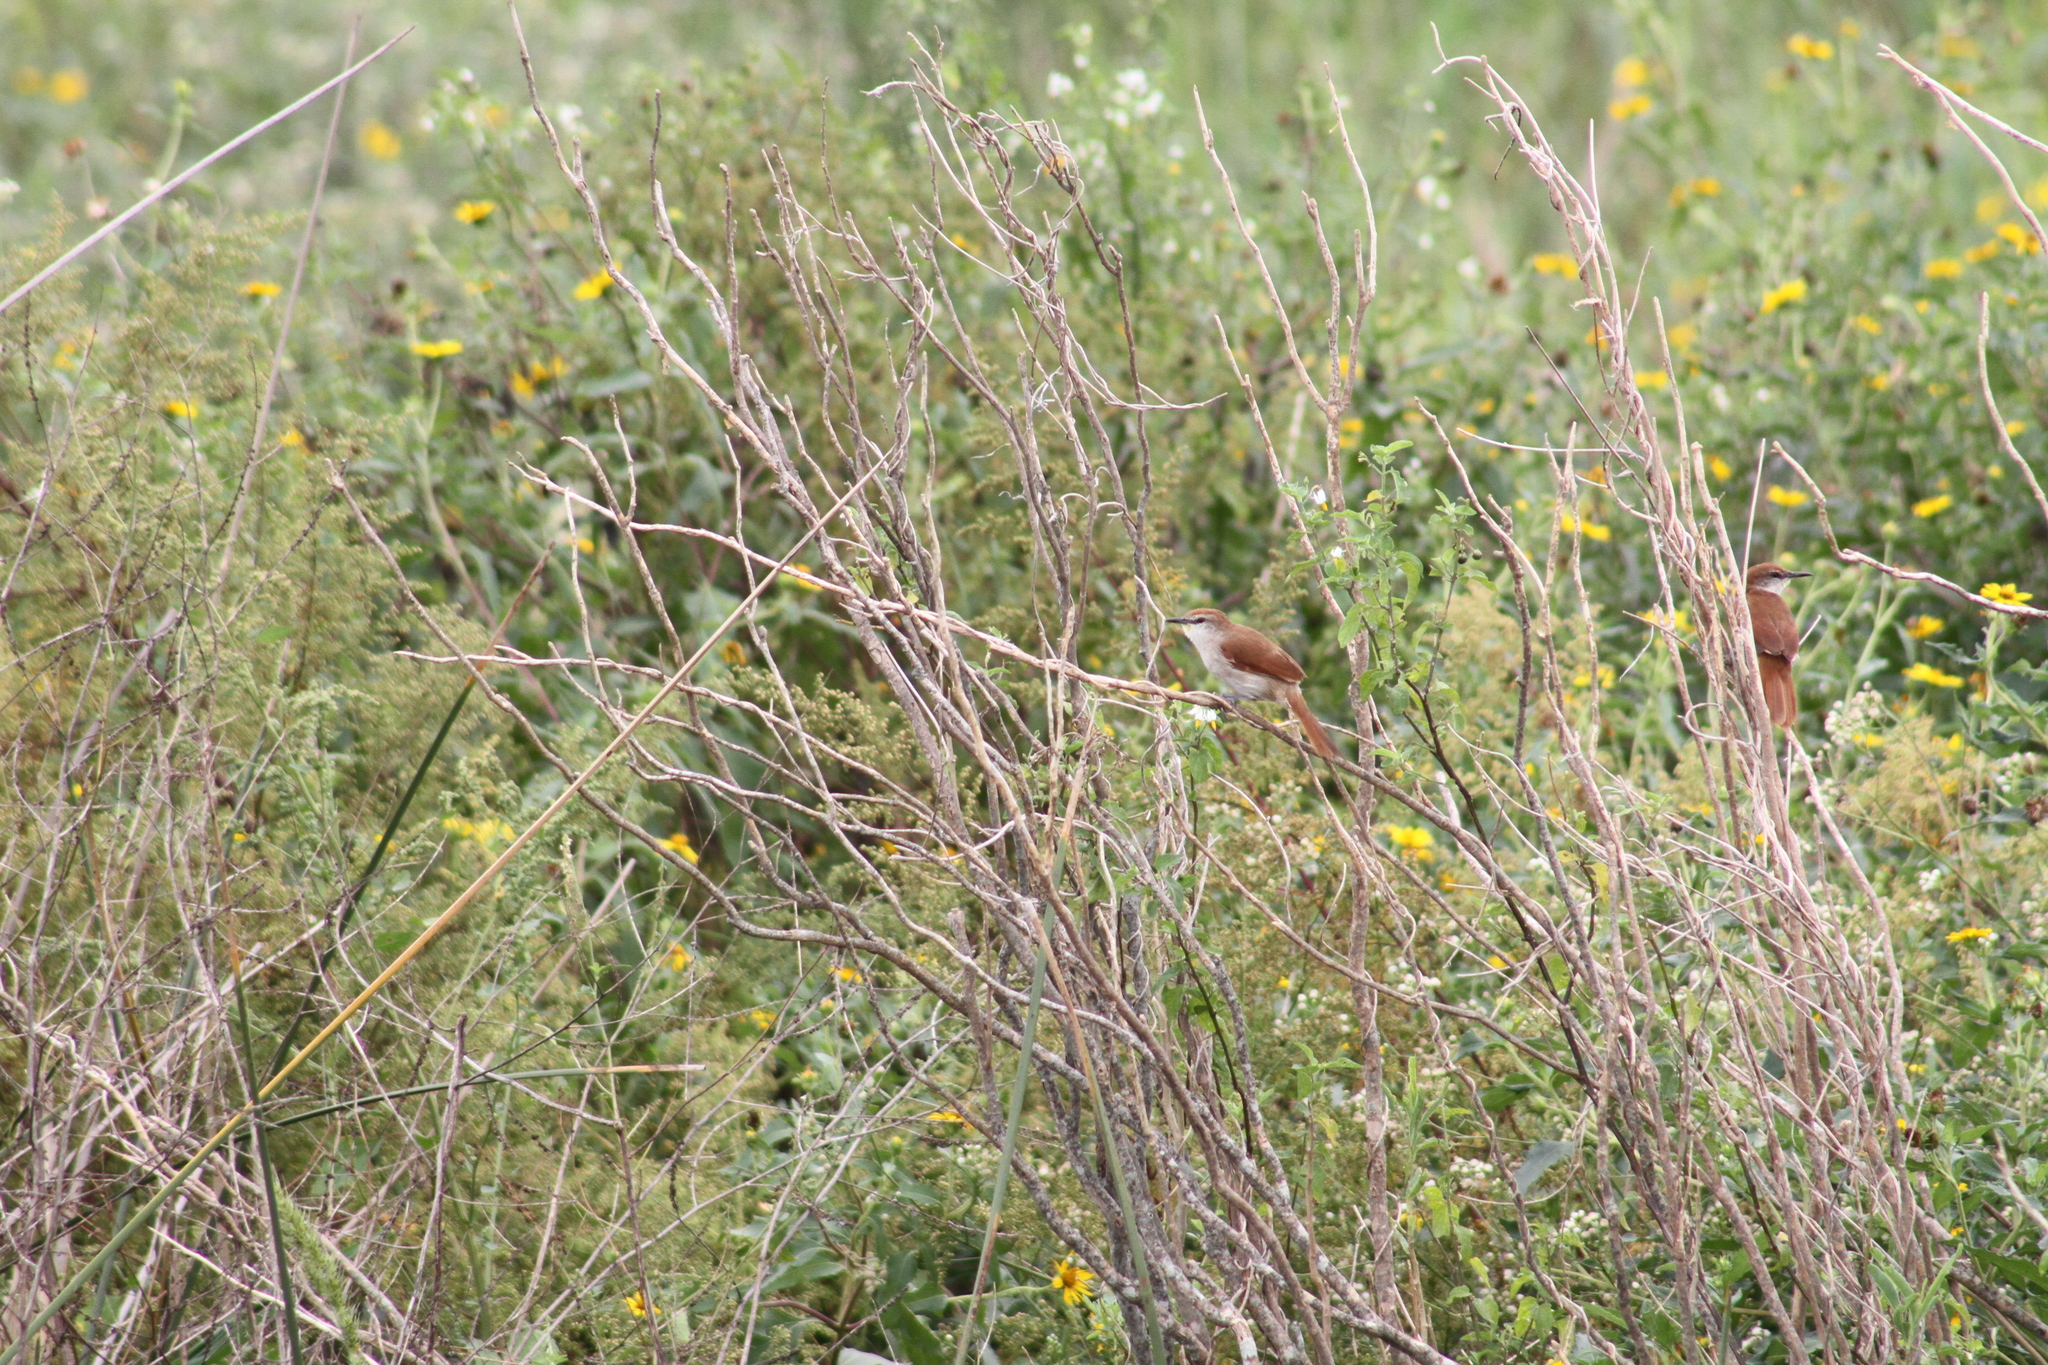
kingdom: Animalia
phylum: Chordata
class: Aves
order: Passeriformes
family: Furnariidae
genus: Certhiaxis
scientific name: Certhiaxis cinnamomeus
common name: Yellow-chinned spinetail
